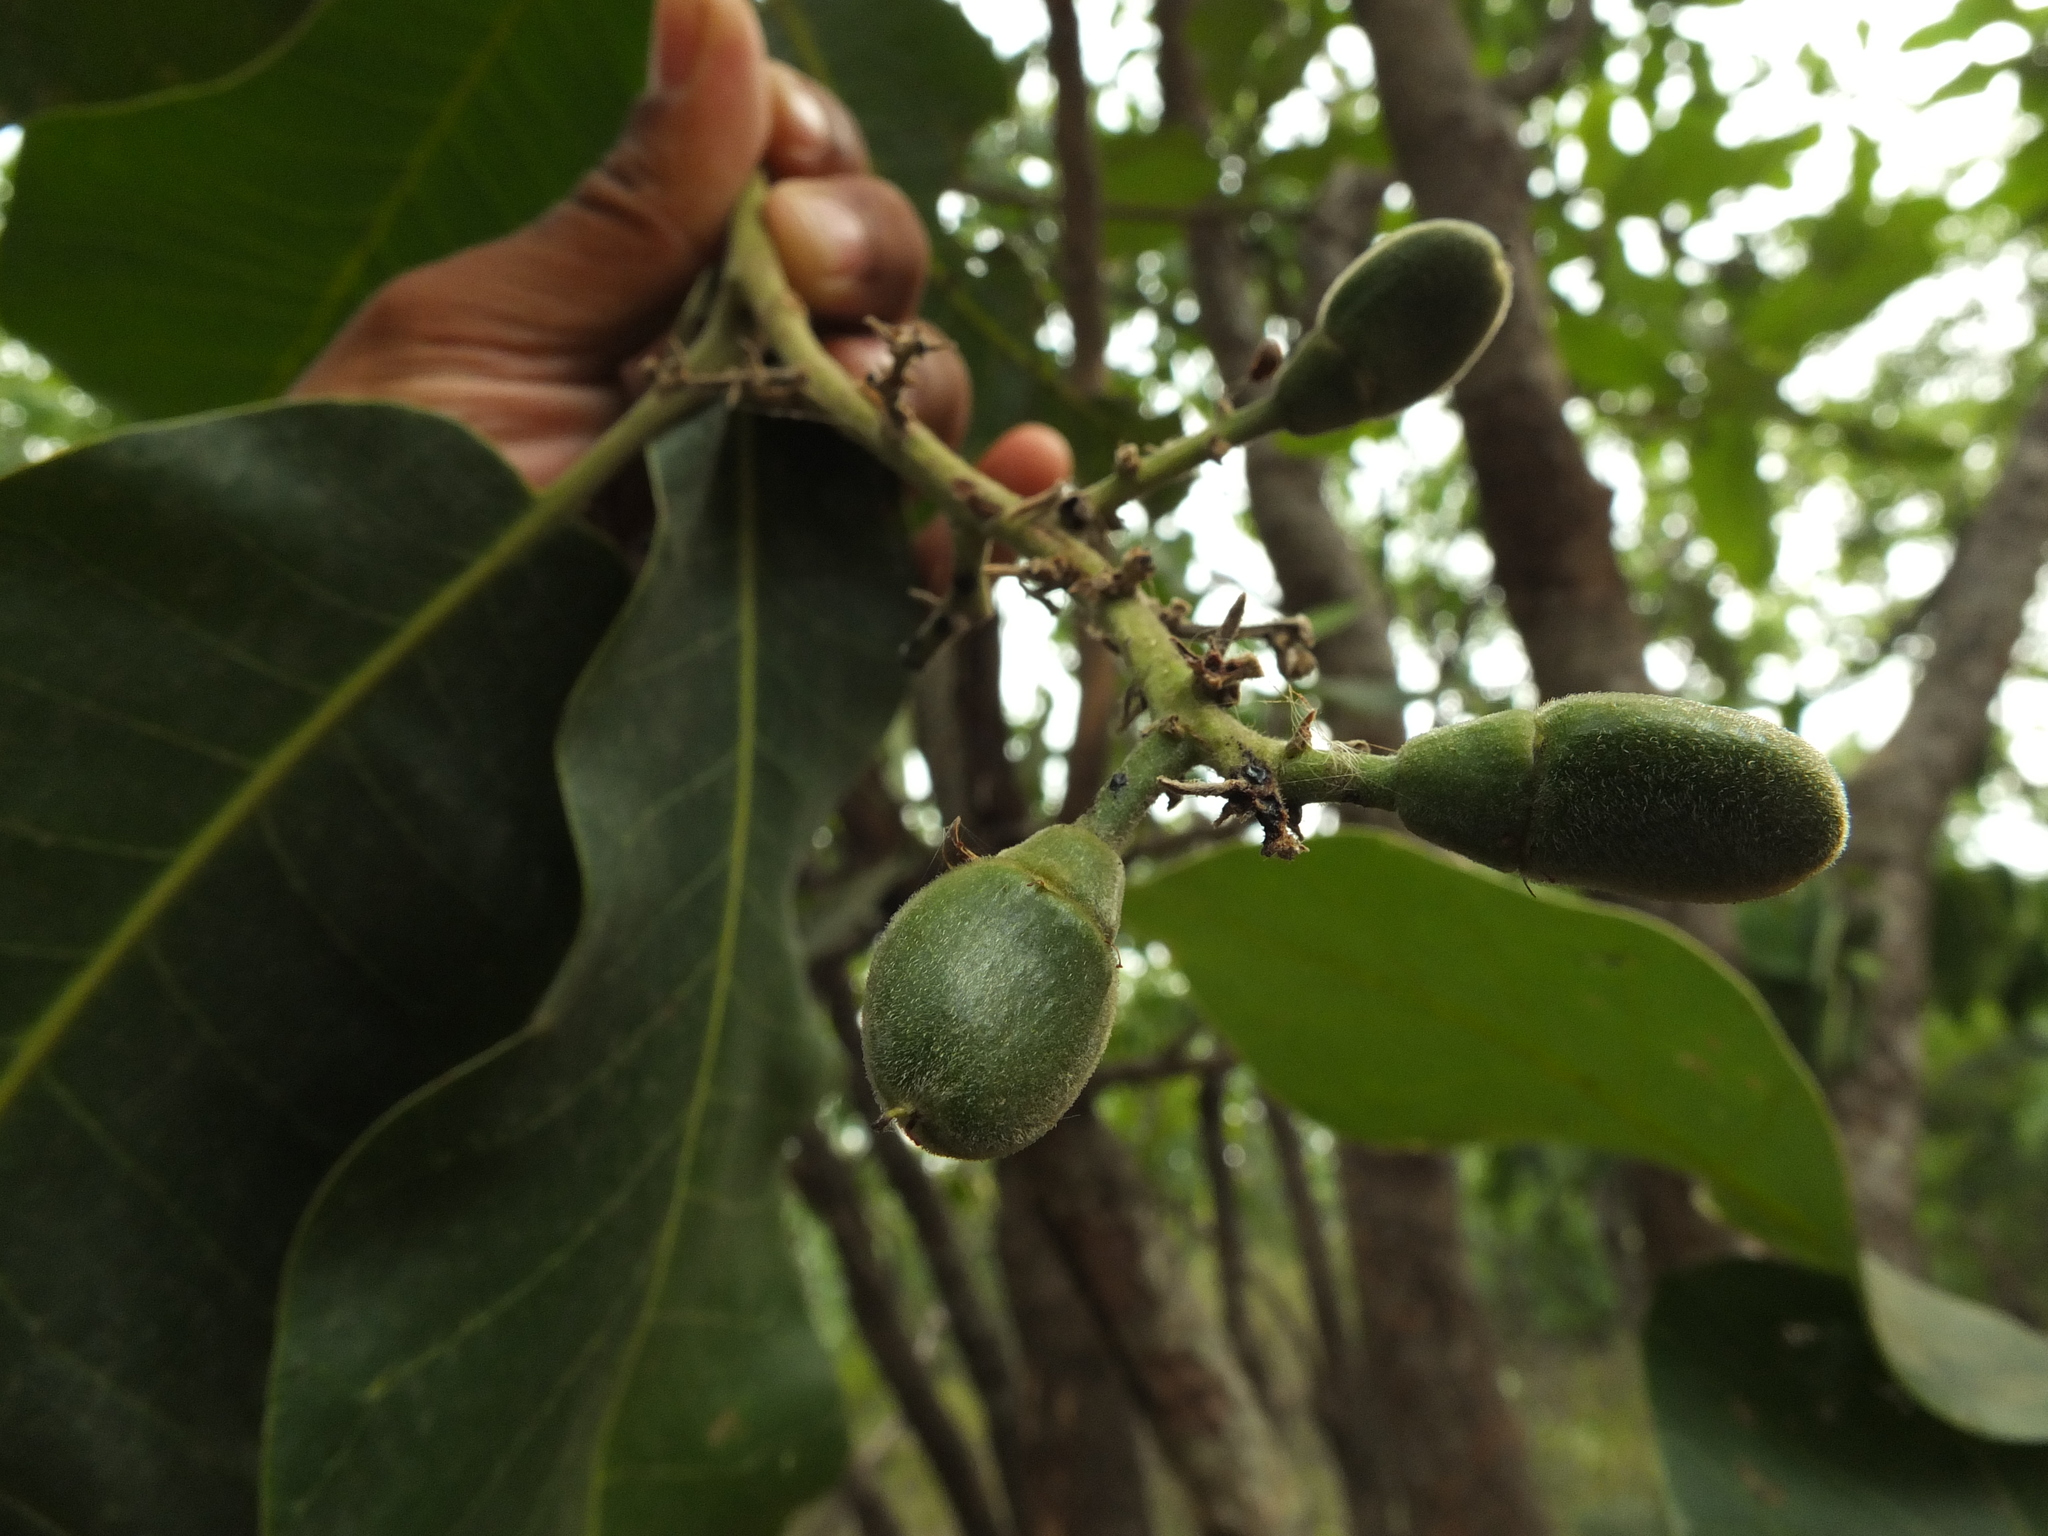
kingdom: Plantae
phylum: Tracheophyta
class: Magnoliopsida
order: Sapindales
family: Anacardiaceae
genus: Semecarpus
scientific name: Semecarpus anacardium
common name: Marking nut-tree
